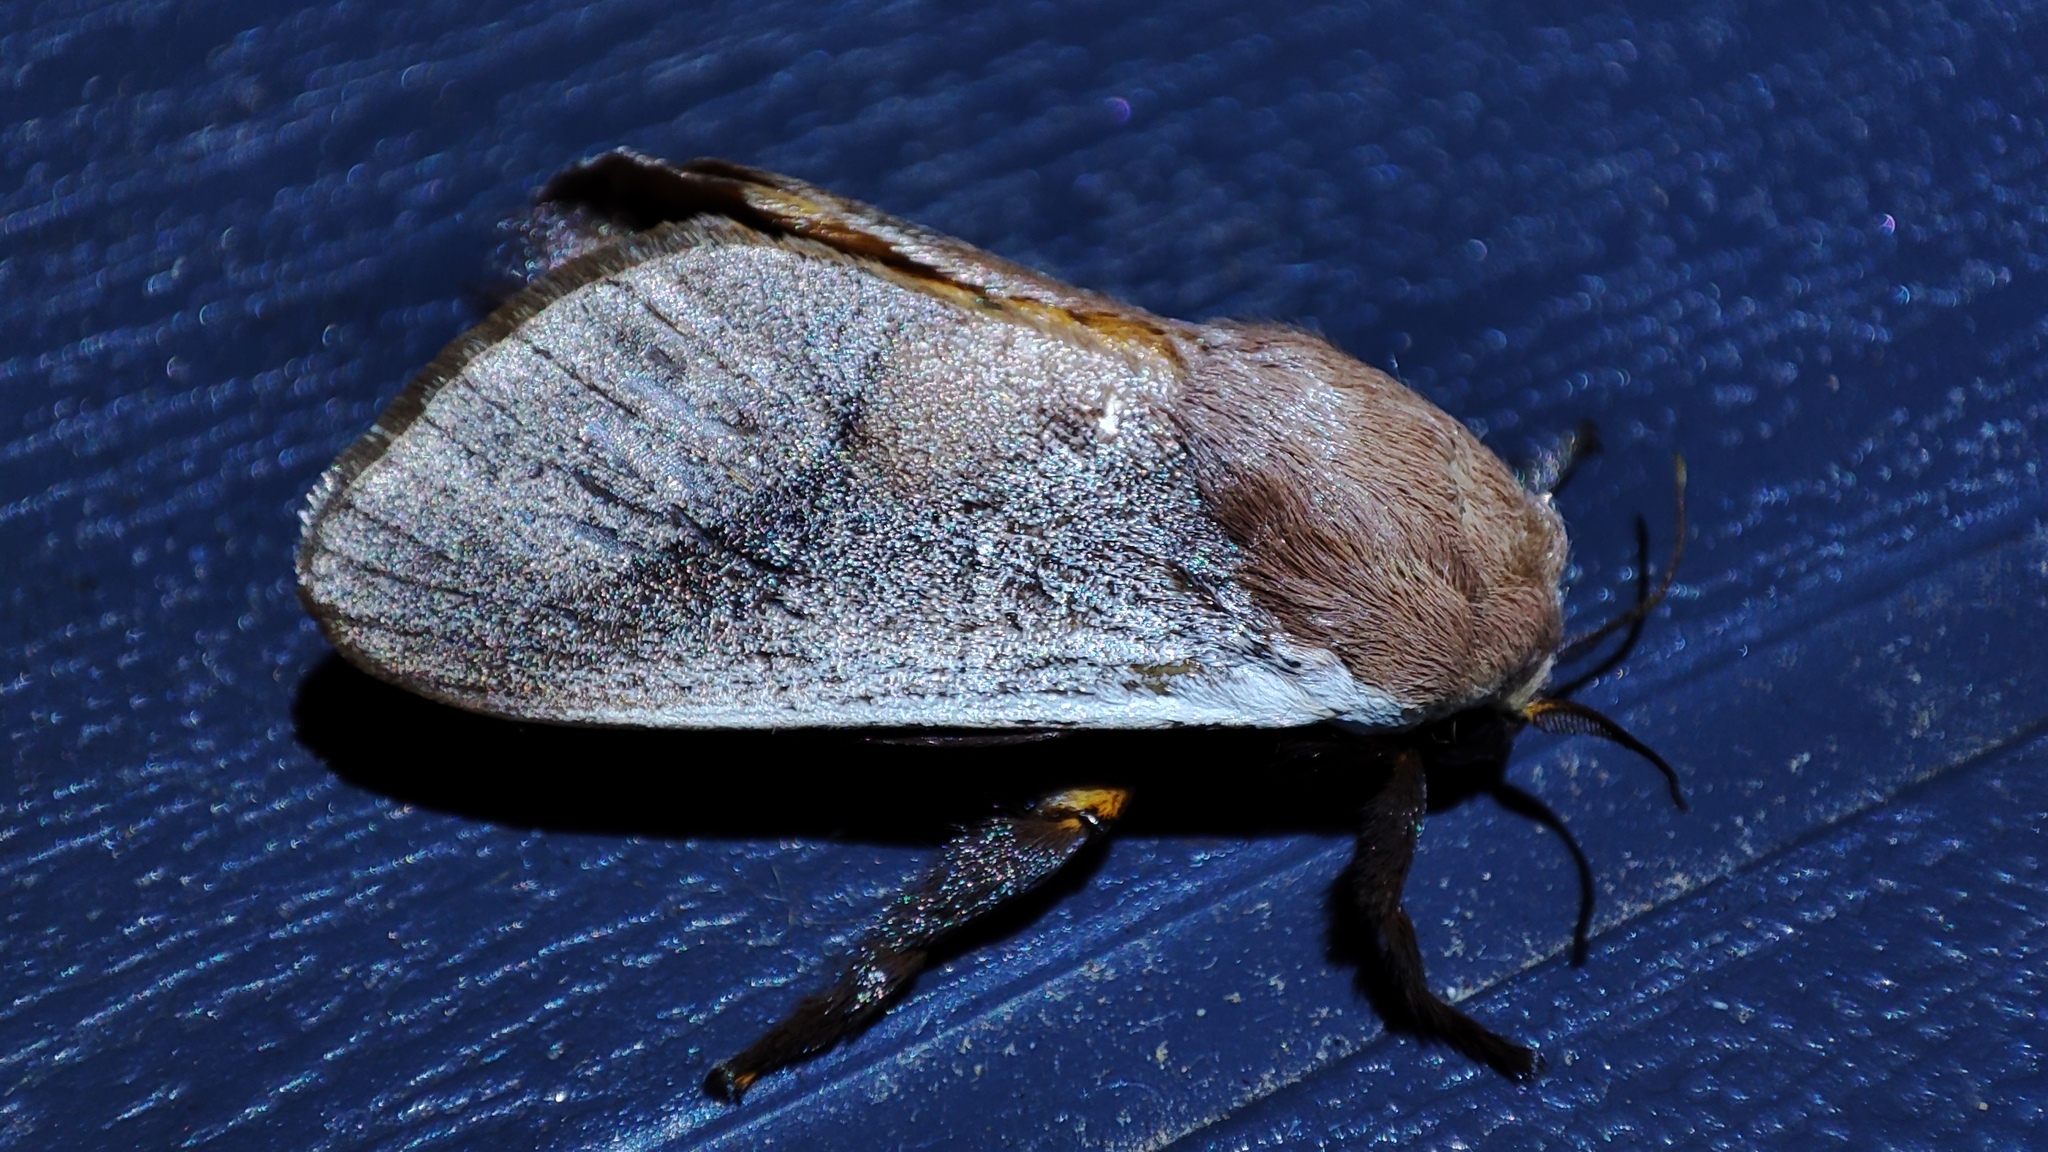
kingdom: Animalia
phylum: Arthropoda
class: Insecta
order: Lepidoptera
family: Limacodidae
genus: Latoia
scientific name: Latoia intermissa
